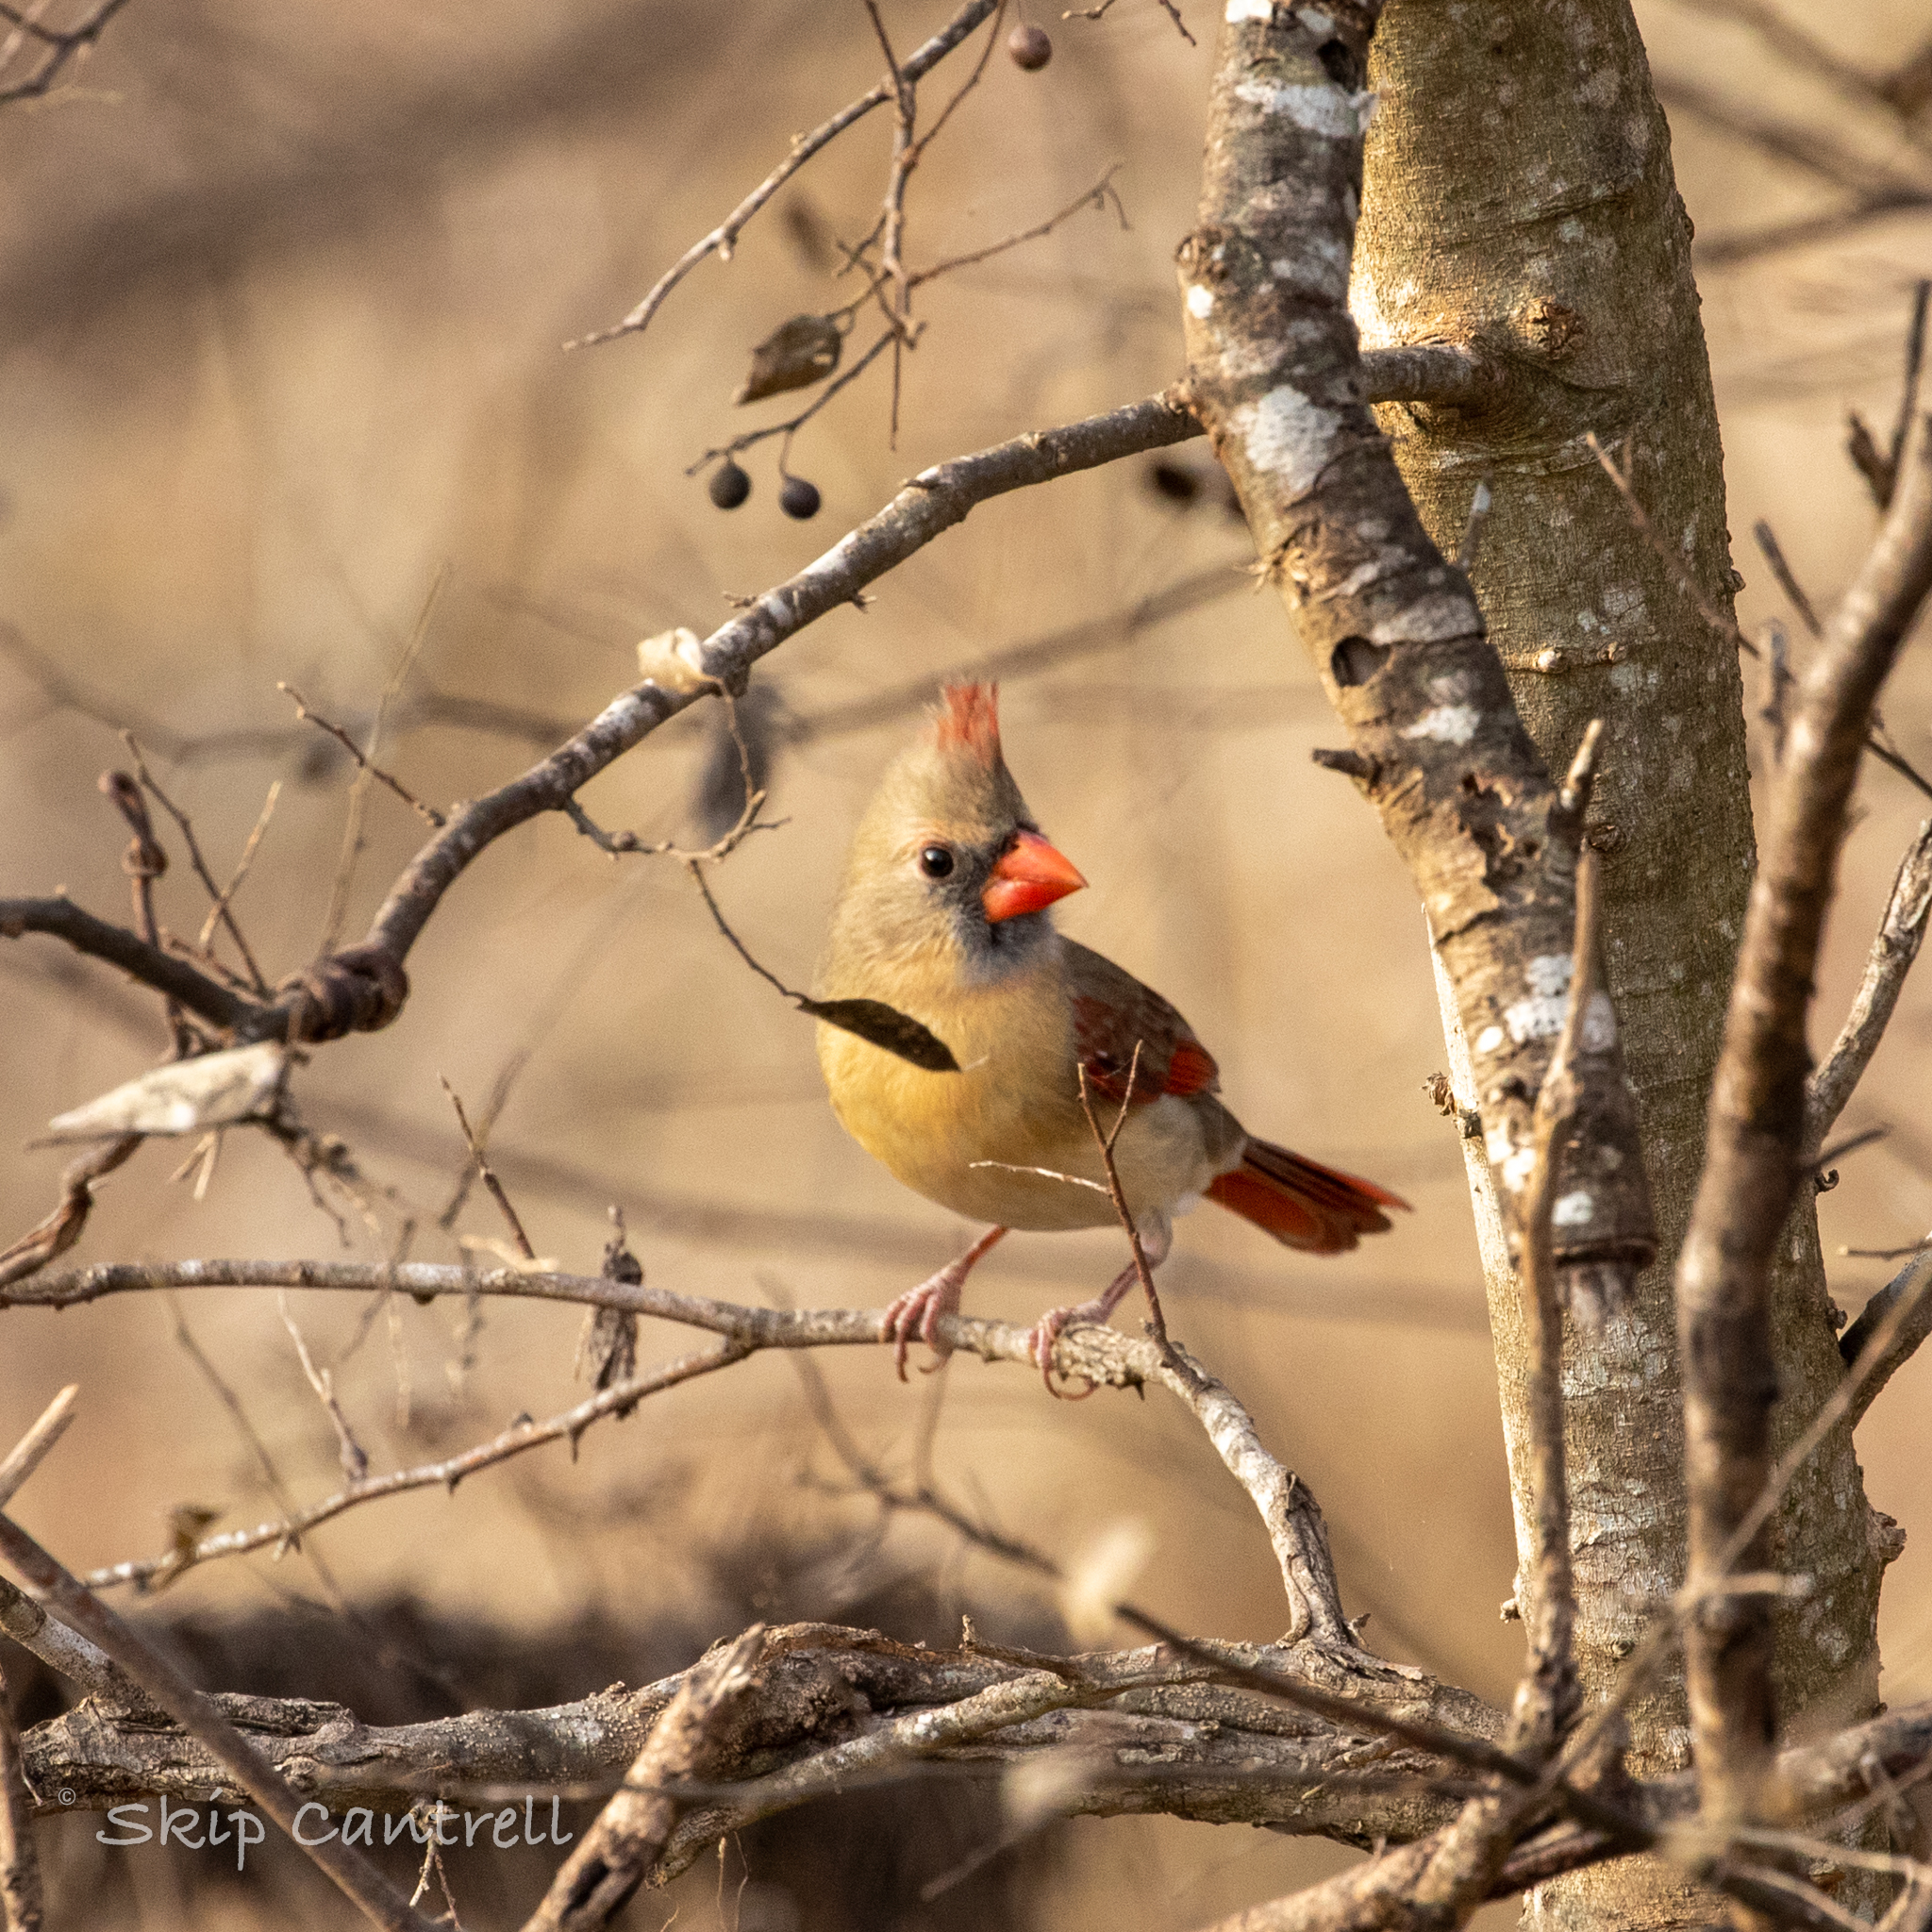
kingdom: Animalia
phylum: Chordata
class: Aves
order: Passeriformes
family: Cardinalidae
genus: Cardinalis
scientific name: Cardinalis cardinalis
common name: Northern cardinal
